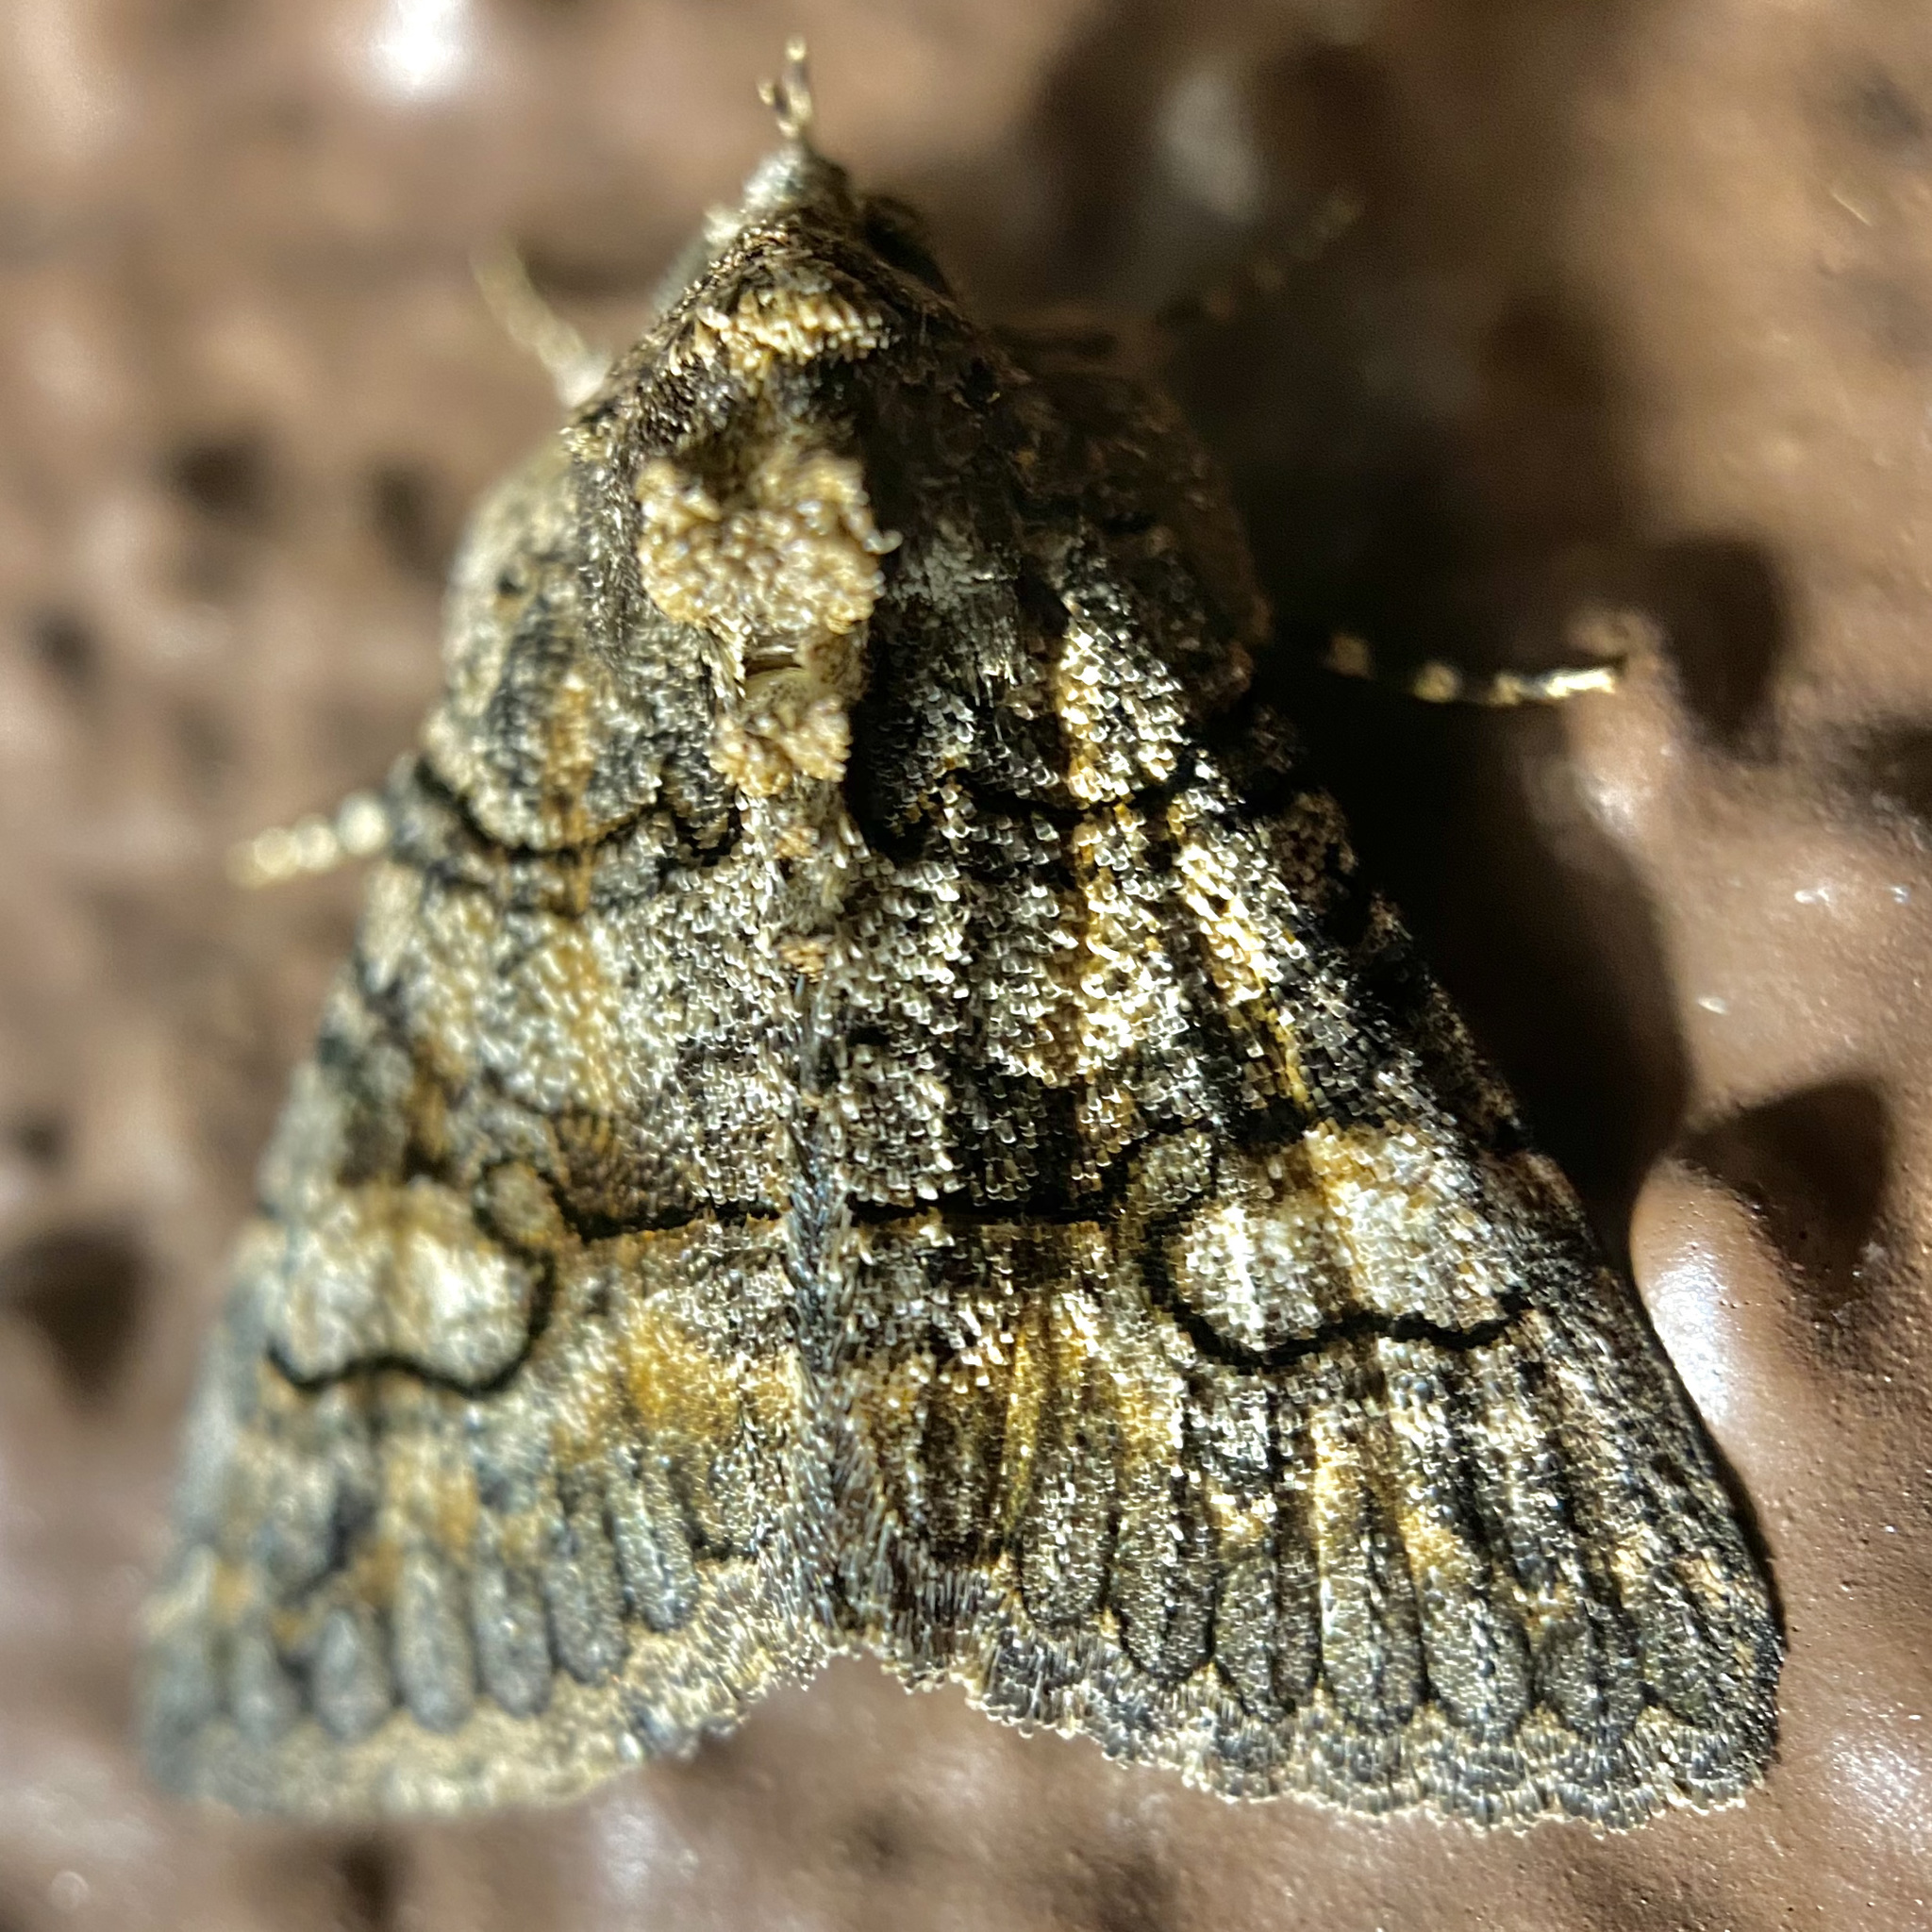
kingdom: Animalia
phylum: Arthropoda
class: Insecta
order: Lepidoptera
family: Erebidae
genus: Elousa
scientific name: Elousa mima
